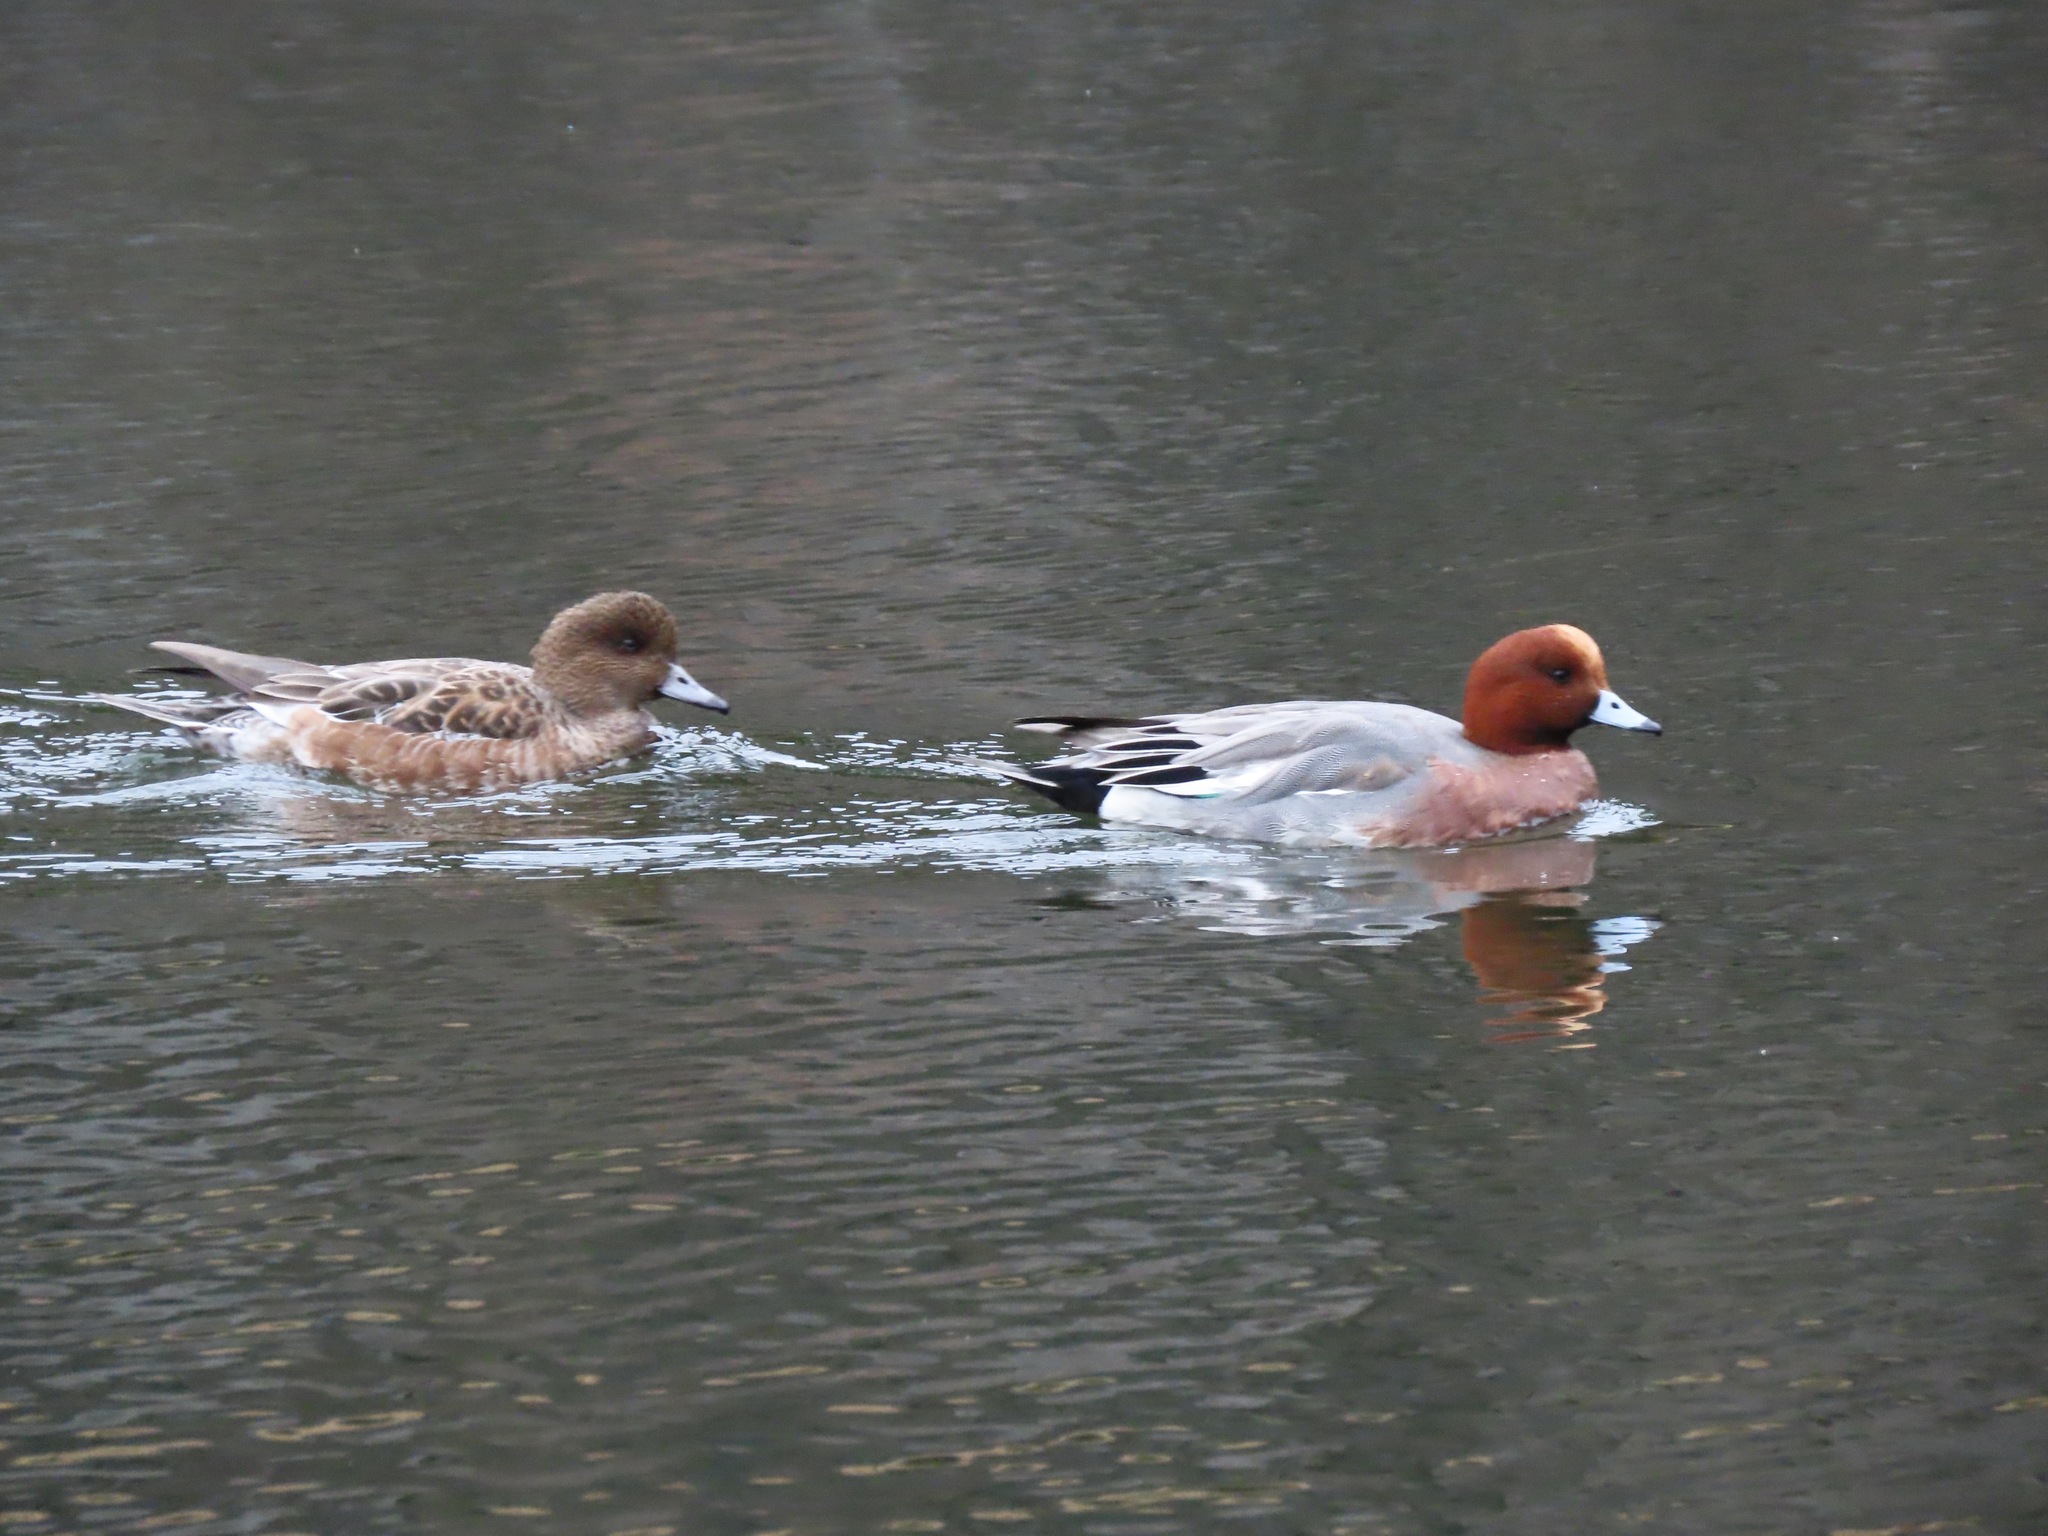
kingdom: Animalia
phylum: Chordata
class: Aves
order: Anseriformes
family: Anatidae
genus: Mareca
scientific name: Mareca penelope
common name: Eurasian wigeon
